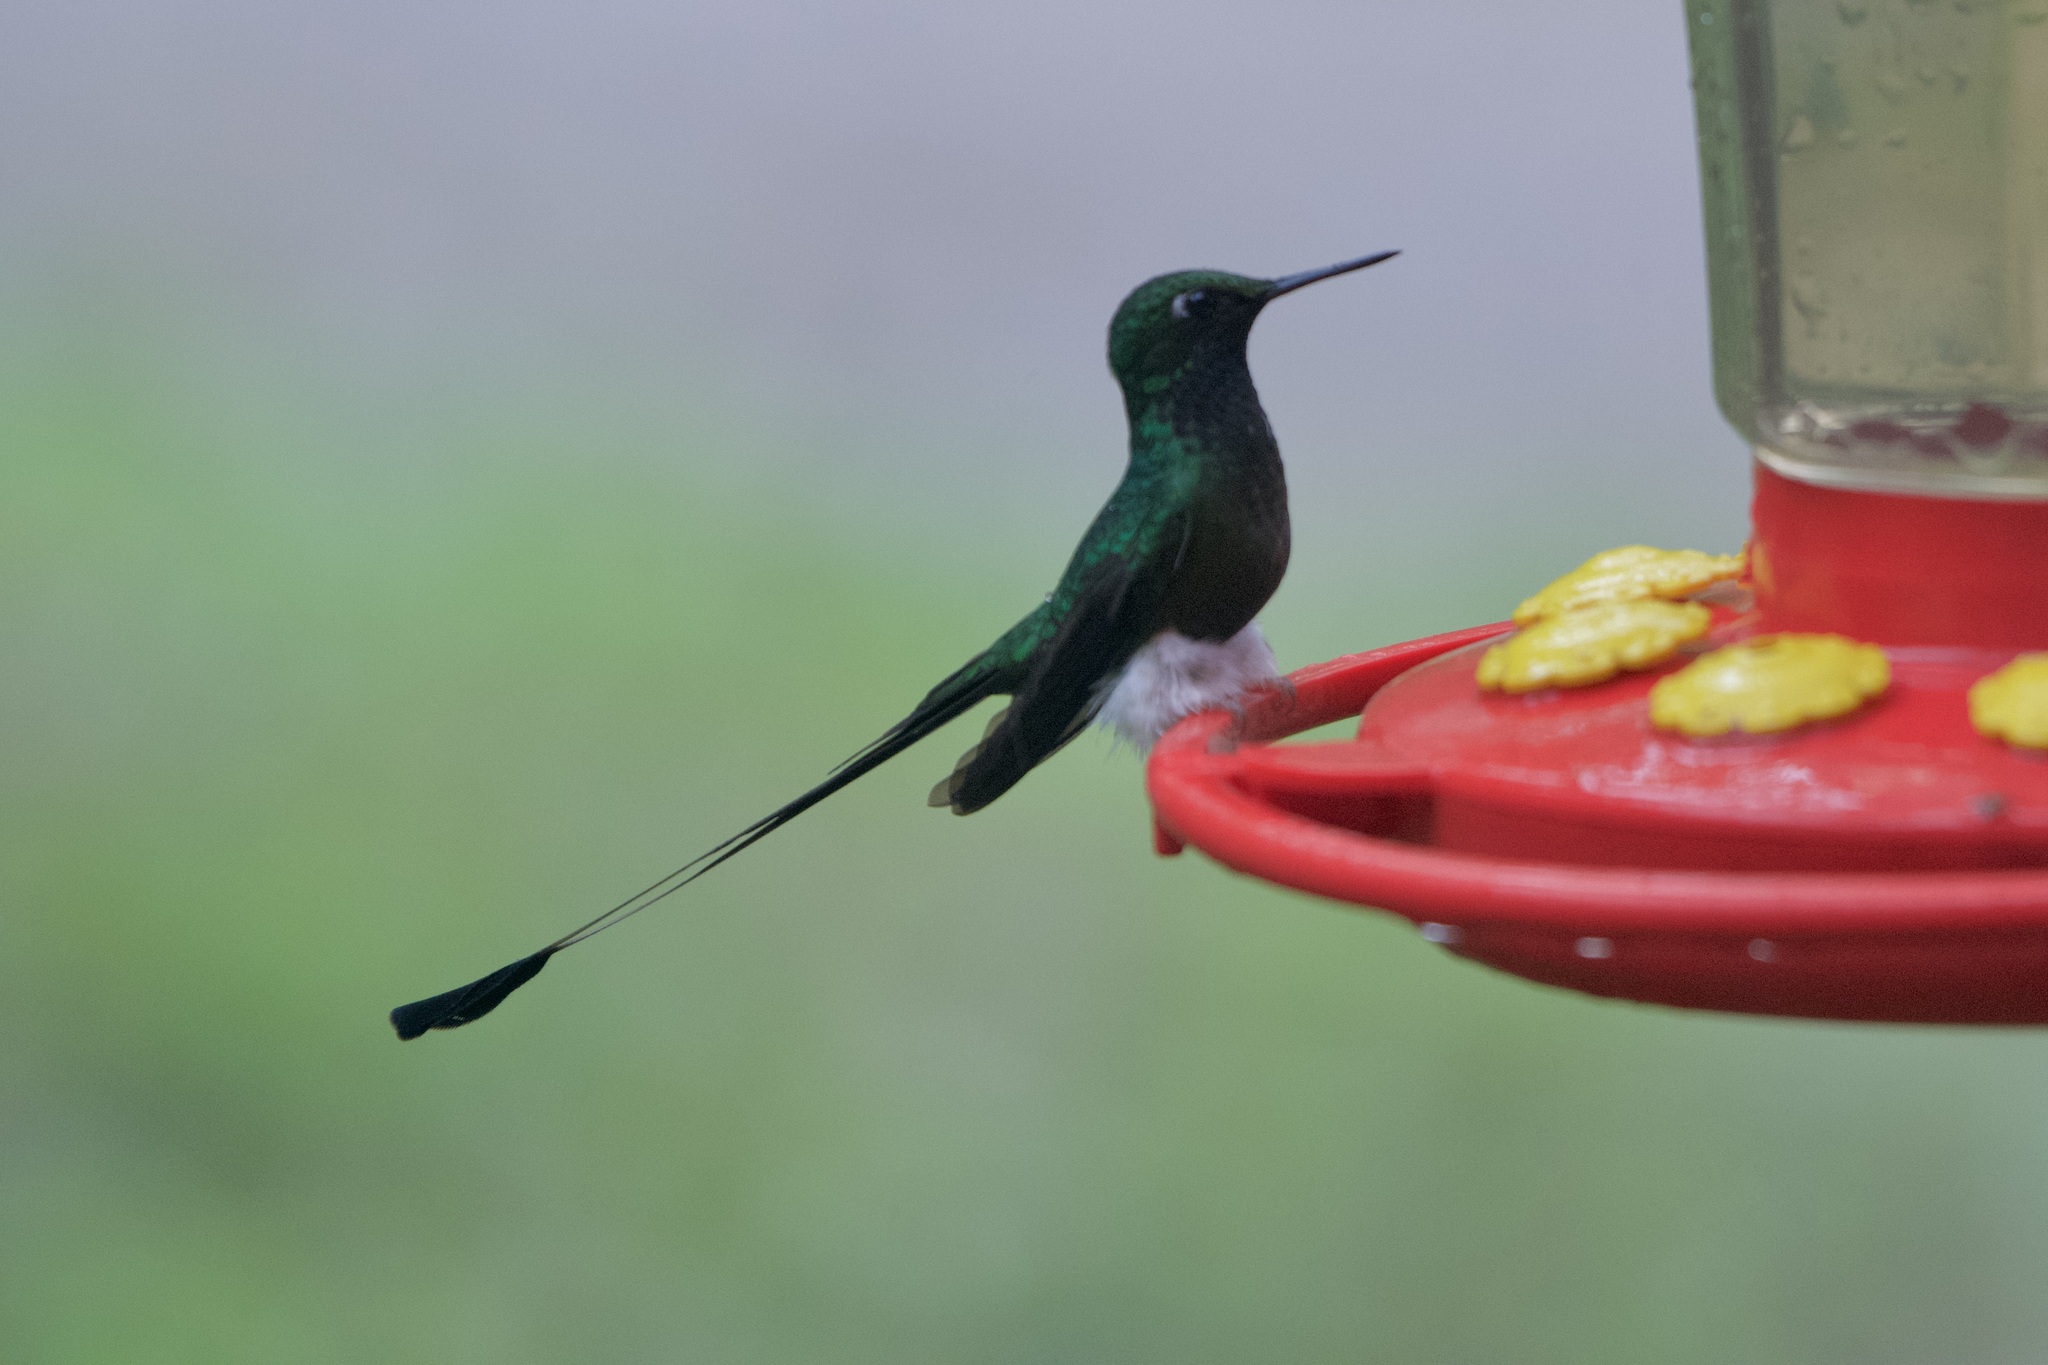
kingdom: Animalia
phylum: Chordata
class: Aves
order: Apodiformes
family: Trochilidae
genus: Ocreatus
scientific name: Ocreatus underwoodii
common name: Booted racket-tail
